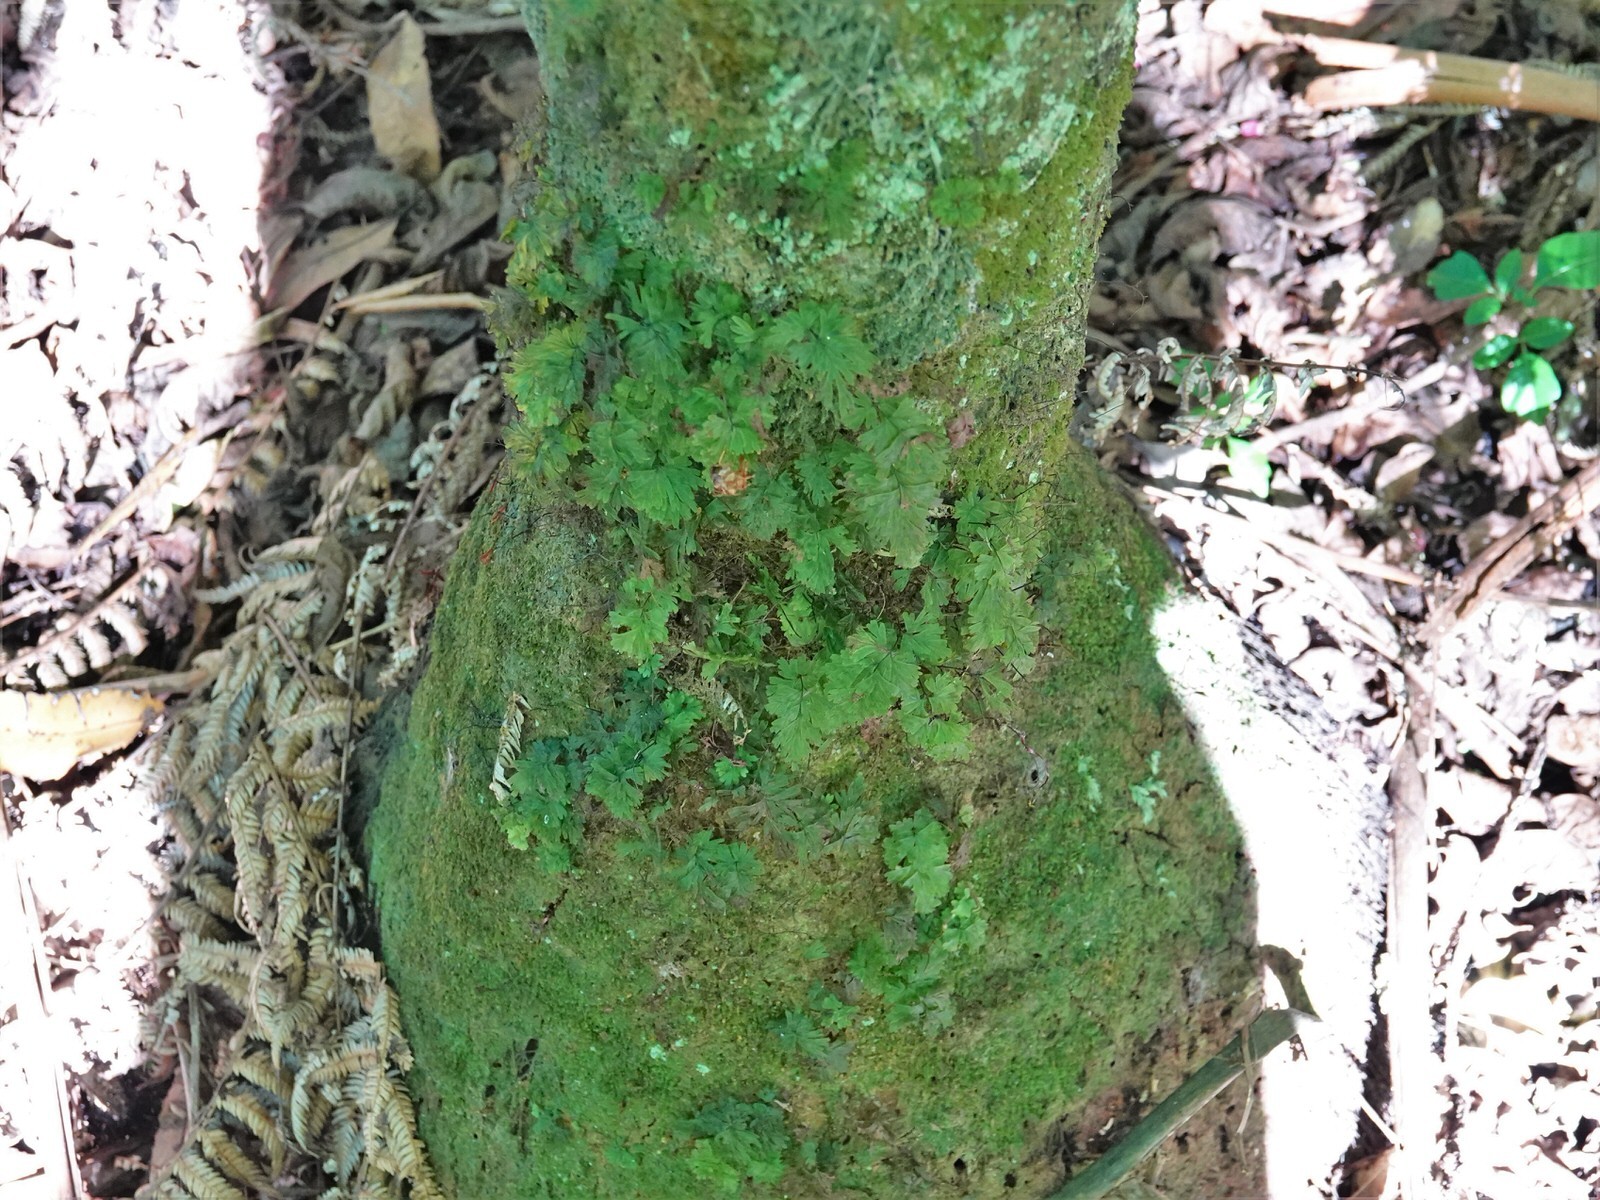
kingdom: Plantae
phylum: Tracheophyta
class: Polypodiopsida
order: Hymenophyllales
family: Hymenophyllaceae
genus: Hymenophyllum
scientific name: Hymenophyllum flabellatum
